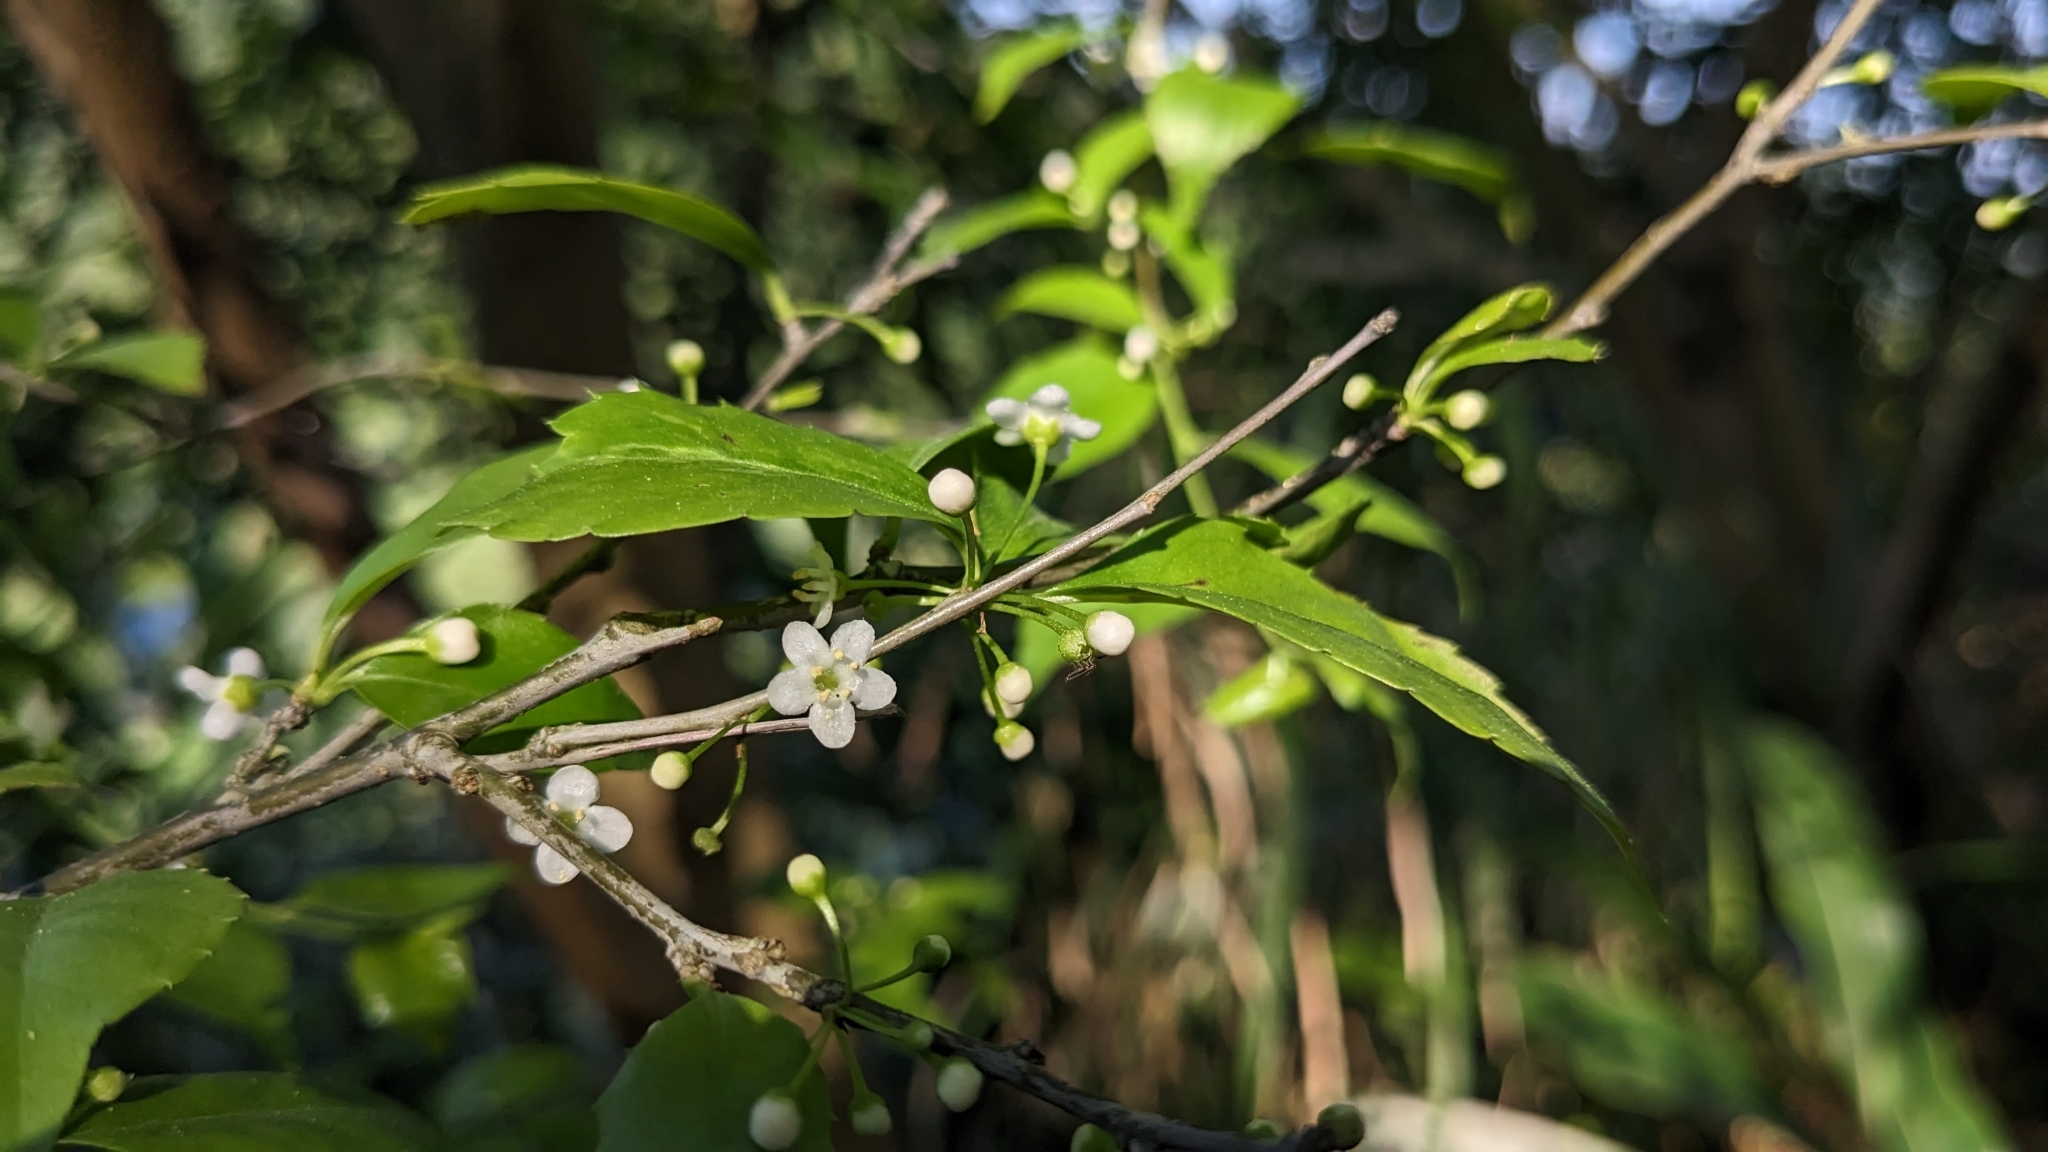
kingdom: Plantae
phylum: Tracheophyta
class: Magnoliopsida
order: Aquifoliales
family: Aquifoliaceae
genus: Ilex
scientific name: Ilex asprella
